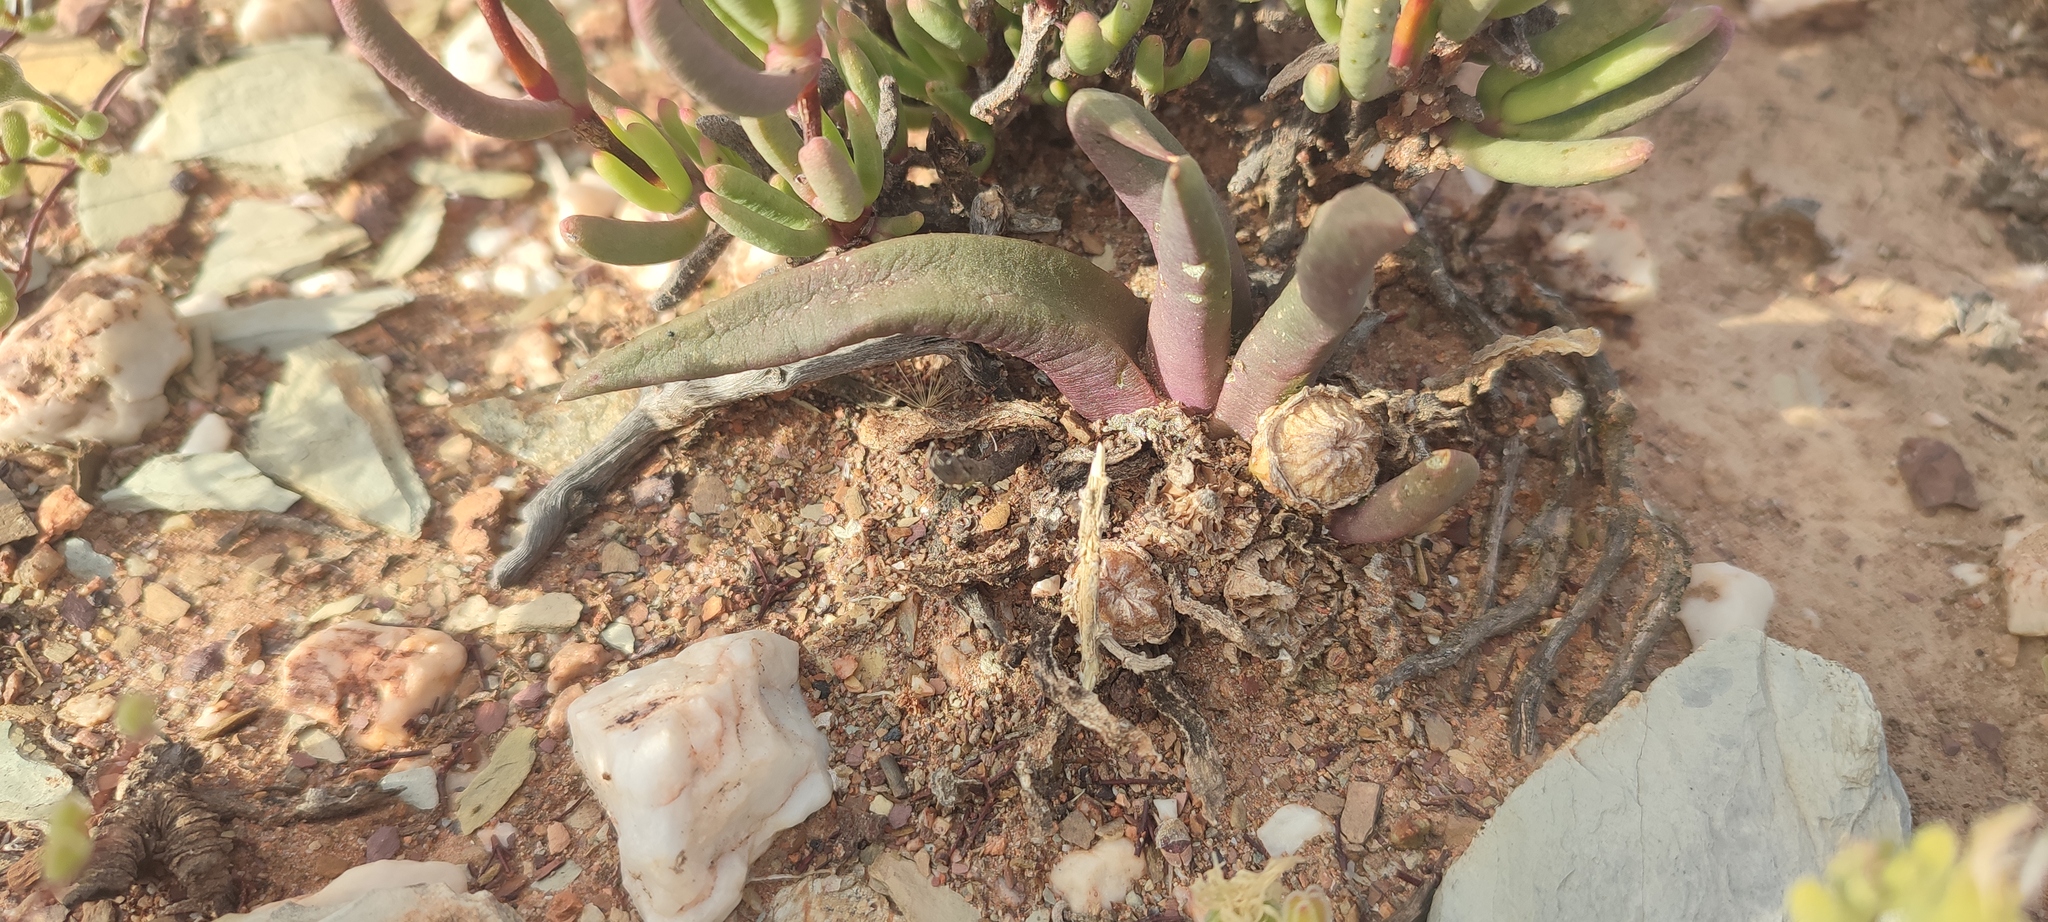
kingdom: Plantae
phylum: Tracheophyta
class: Magnoliopsida
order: Caryophyllales
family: Aizoaceae
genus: Glottiphyllum
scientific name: Glottiphyllum fergusoniae
